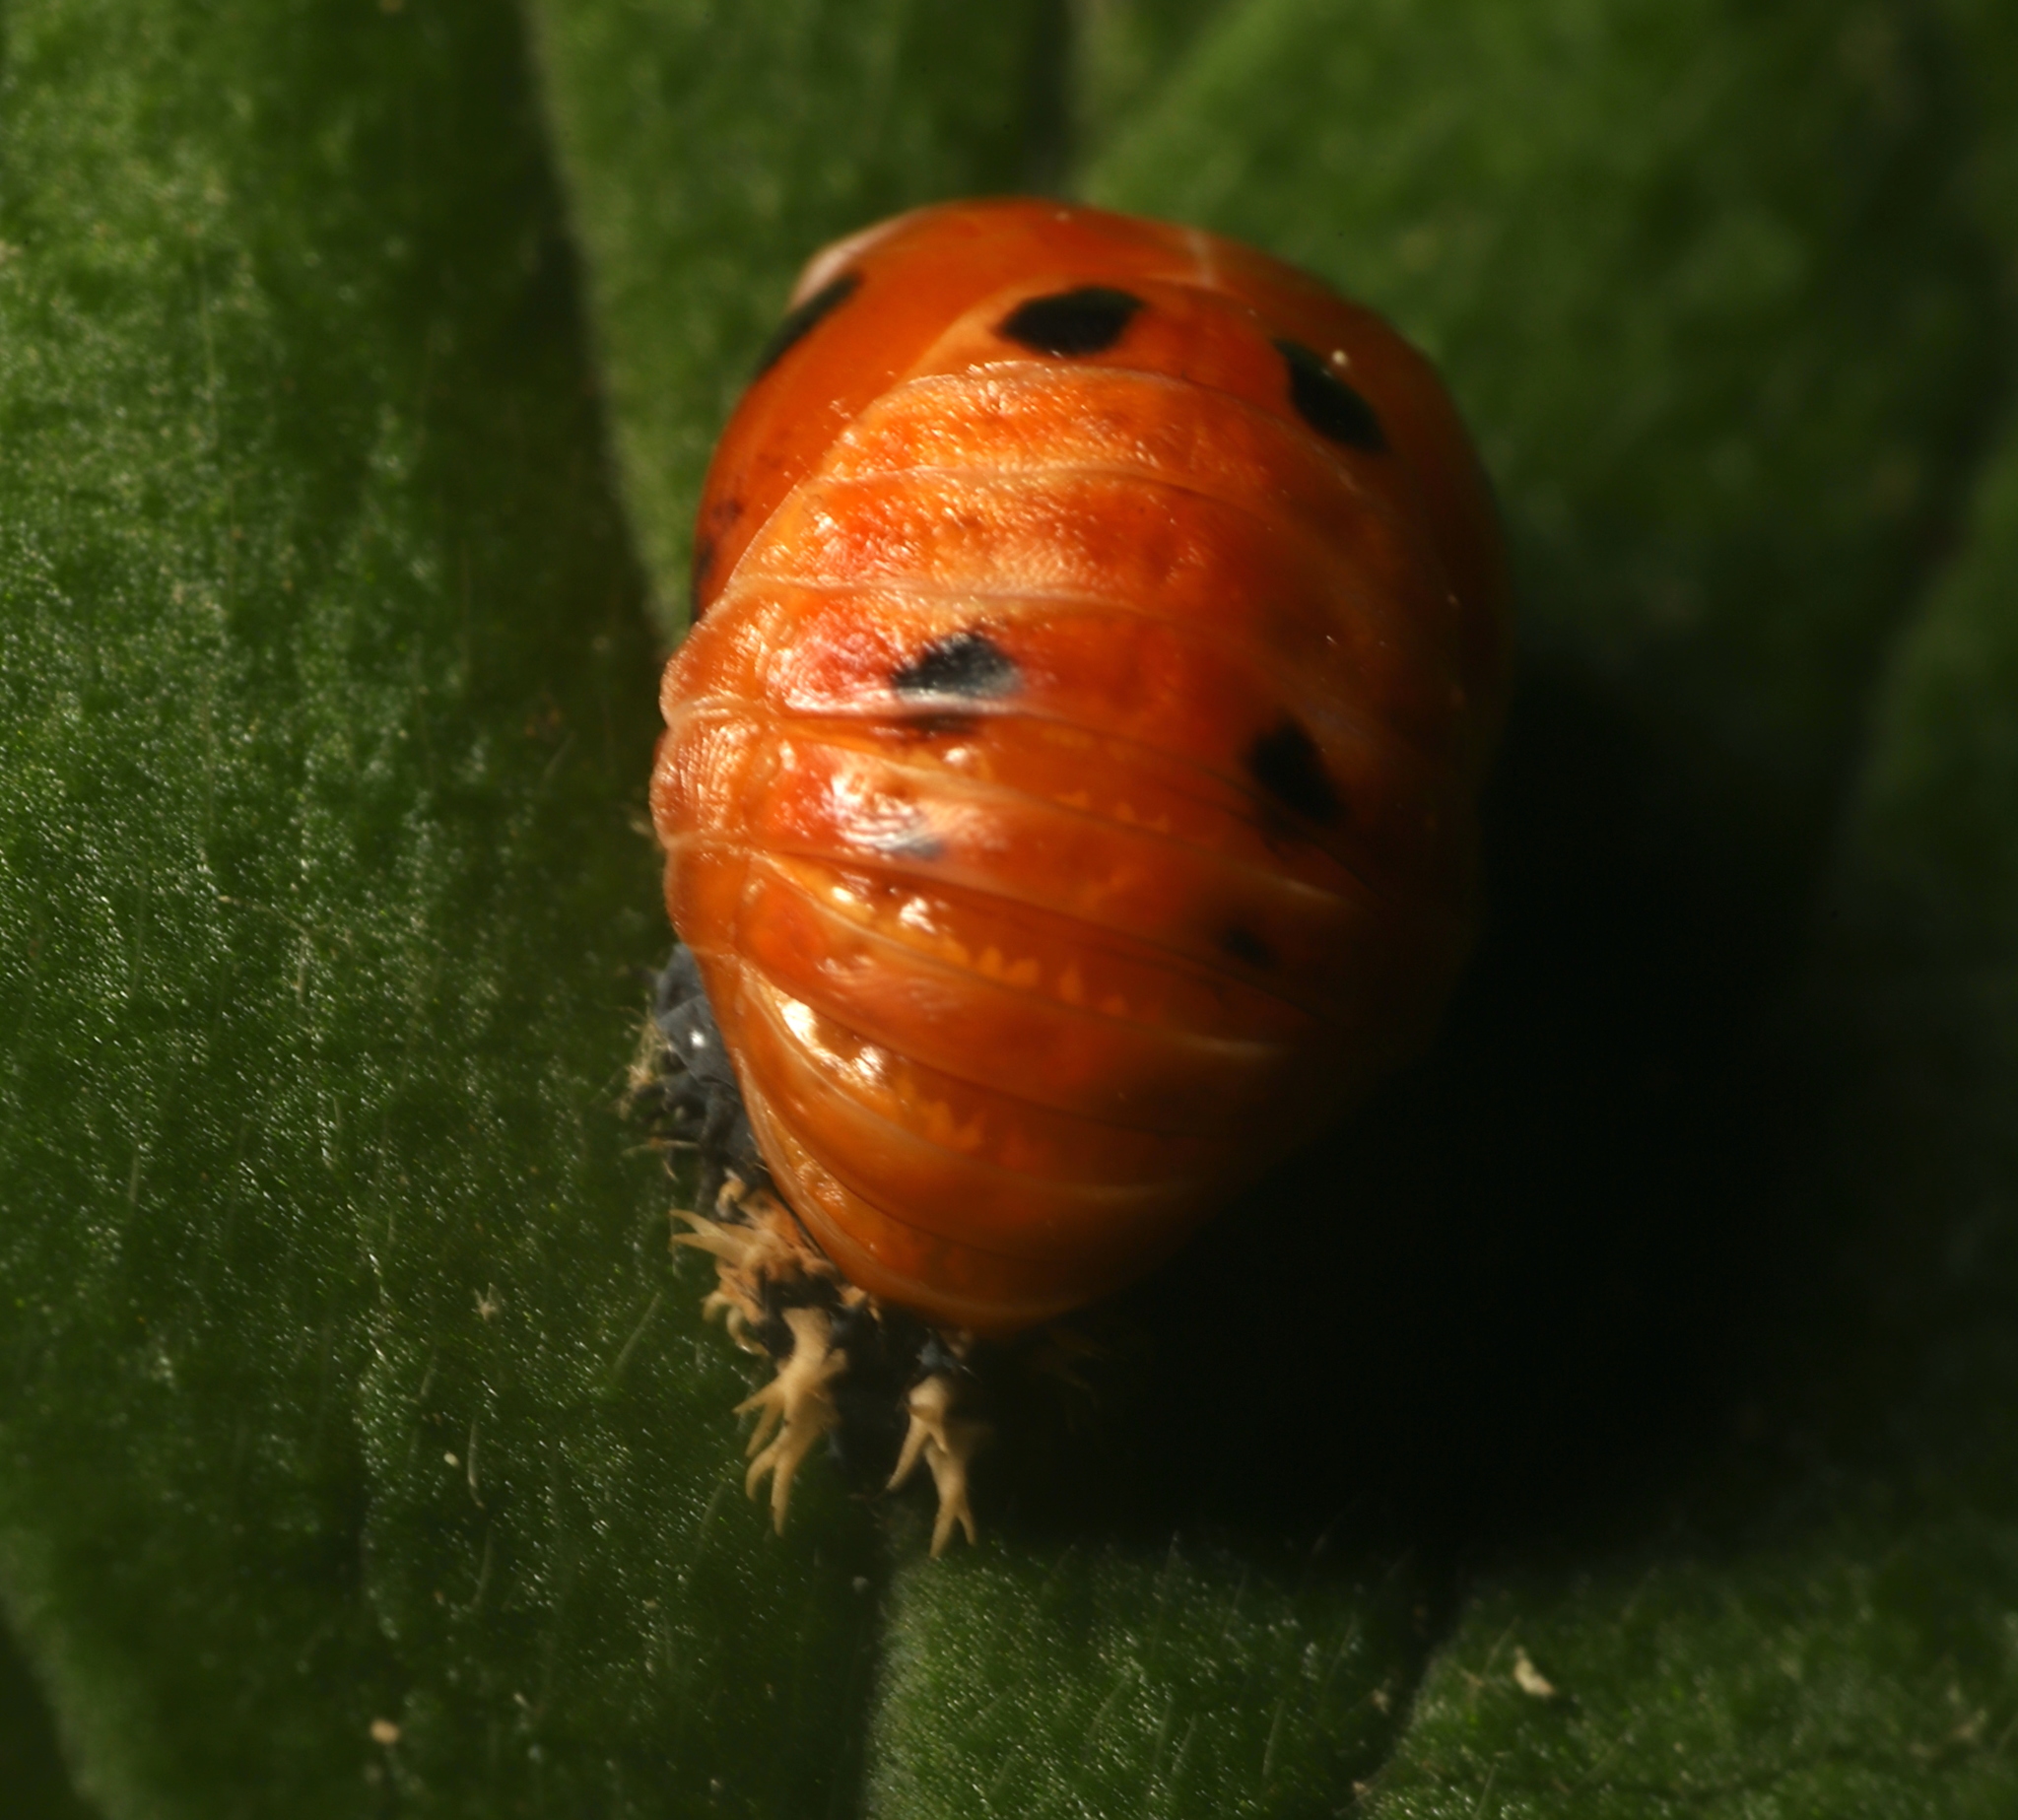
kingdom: Animalia
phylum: Arthropoda
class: Insecta
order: Coleoptera
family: Coccinellidae
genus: Harmonia
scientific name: Harmonia axyridis
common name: Harlequin ladybird
